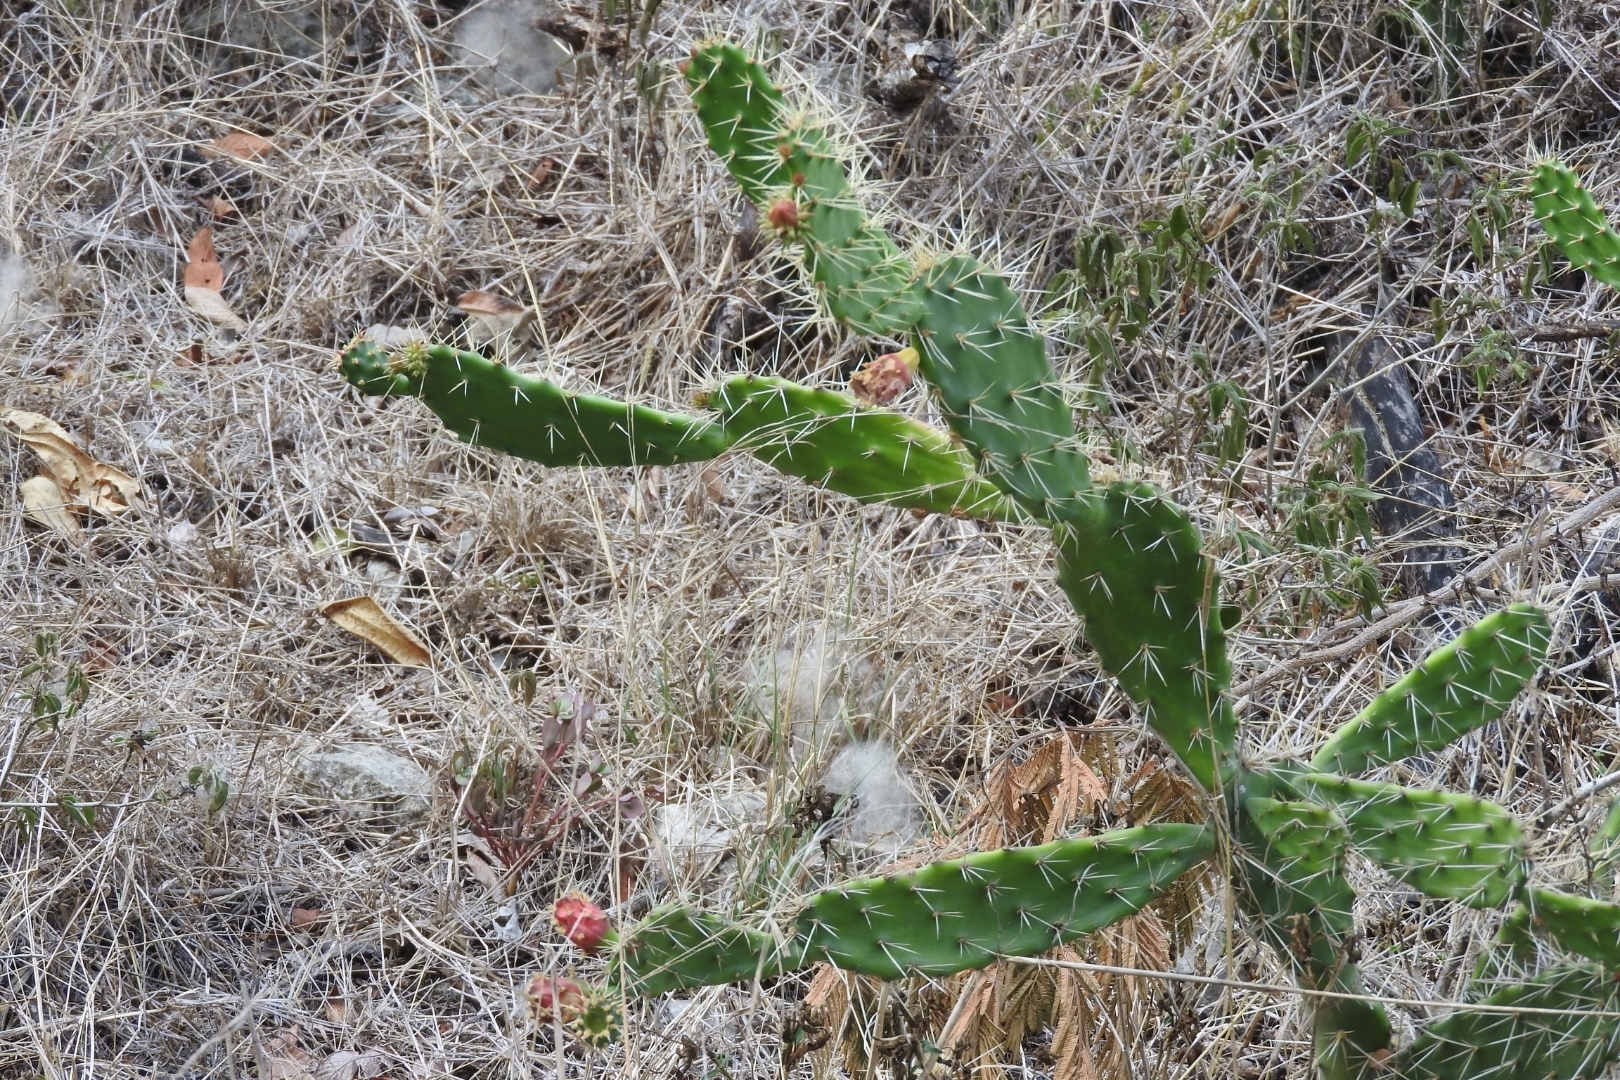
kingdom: Plantae
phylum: Tracheophyta
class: Magnoliopsida
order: Caryophyllales
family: Cactaceae
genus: Opuntia
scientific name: Opuntia hyptiacantha
